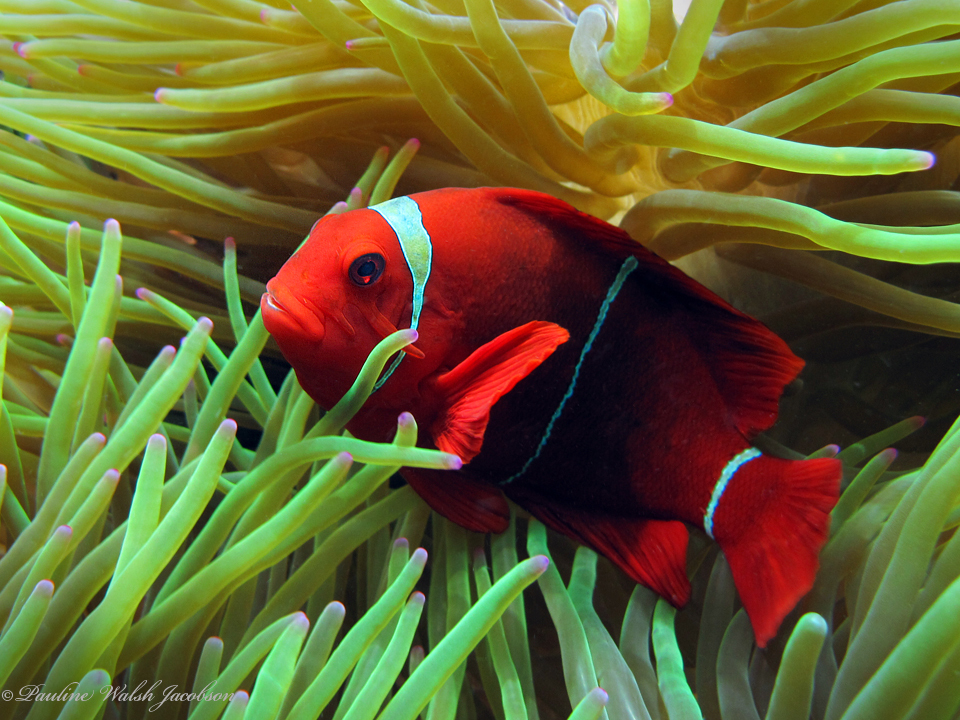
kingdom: Animalia
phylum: Chordata
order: Perciformes
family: Pomacentridae
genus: Premnas
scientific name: Premnas biaculeatus
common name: Spinecheek anemonefish
